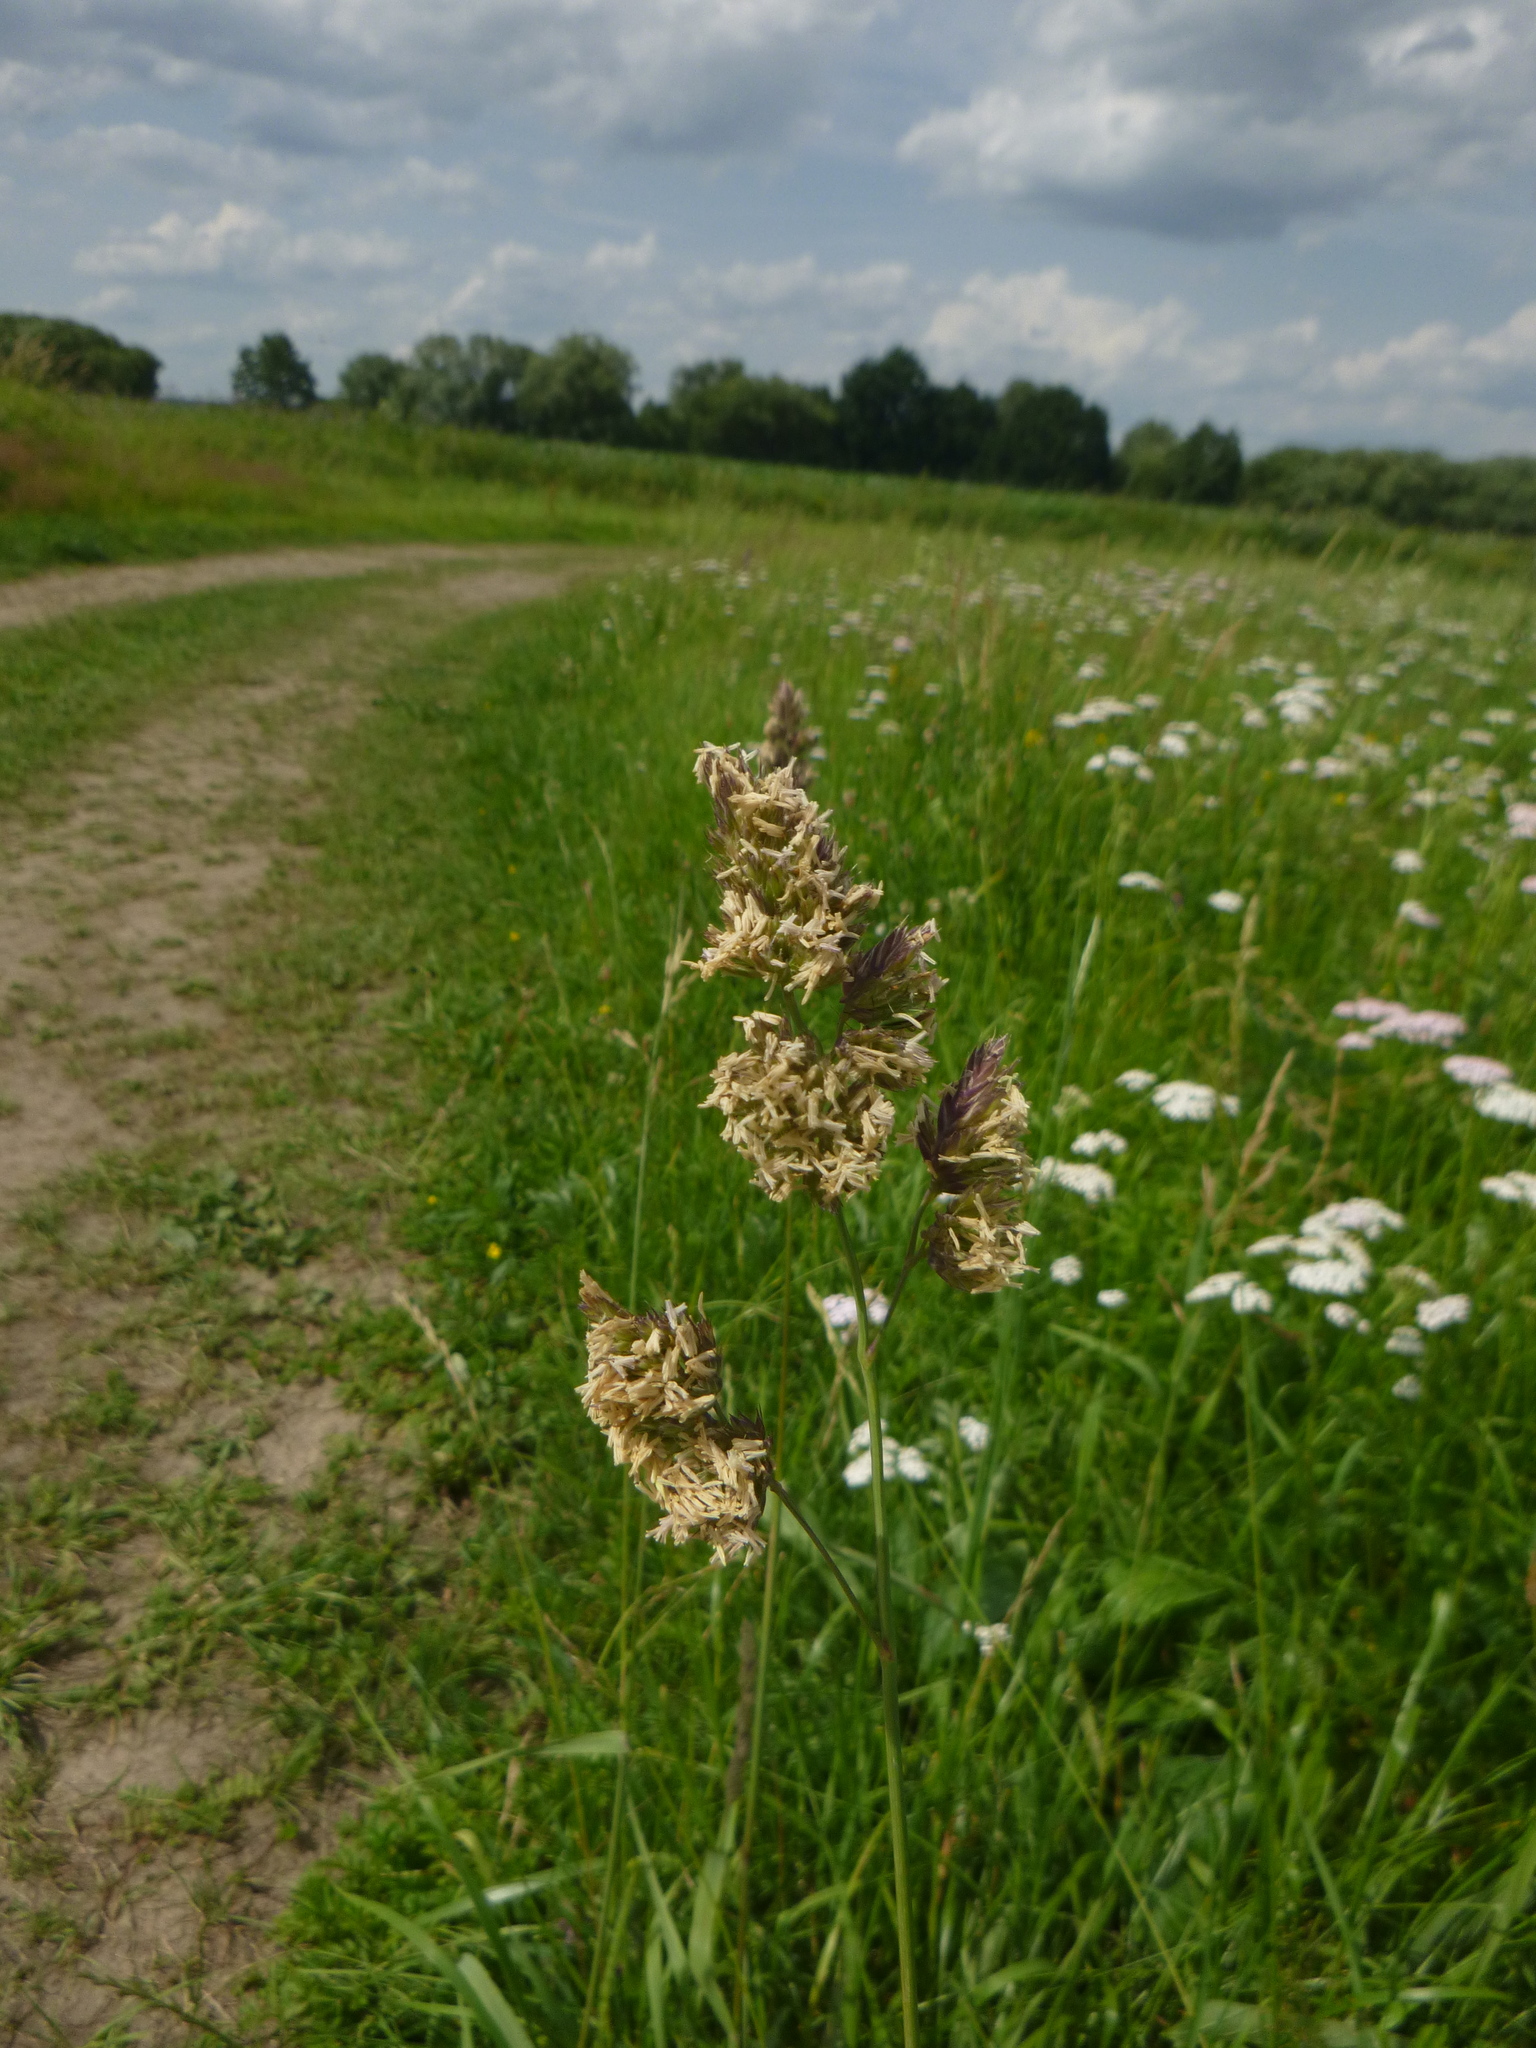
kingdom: Plantae
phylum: Tracheophyta
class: Liliopsida
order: Poales
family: Poaceae
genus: Dactylis
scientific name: Dactylis glomerata
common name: Orchardgrass
